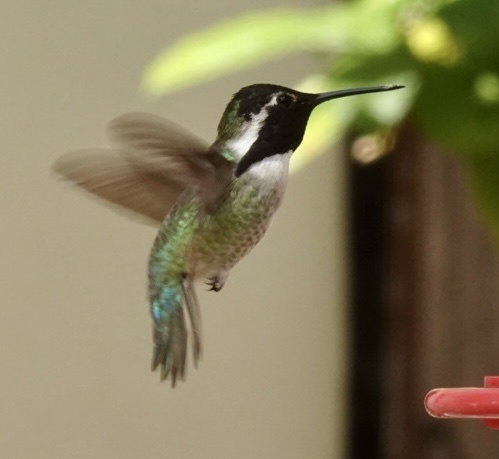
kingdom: Animalia
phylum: Chordata
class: Aves
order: Apodiformes
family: Trochilidae
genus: Calypte
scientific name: Calypte costae
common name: Costa's hummingbird
